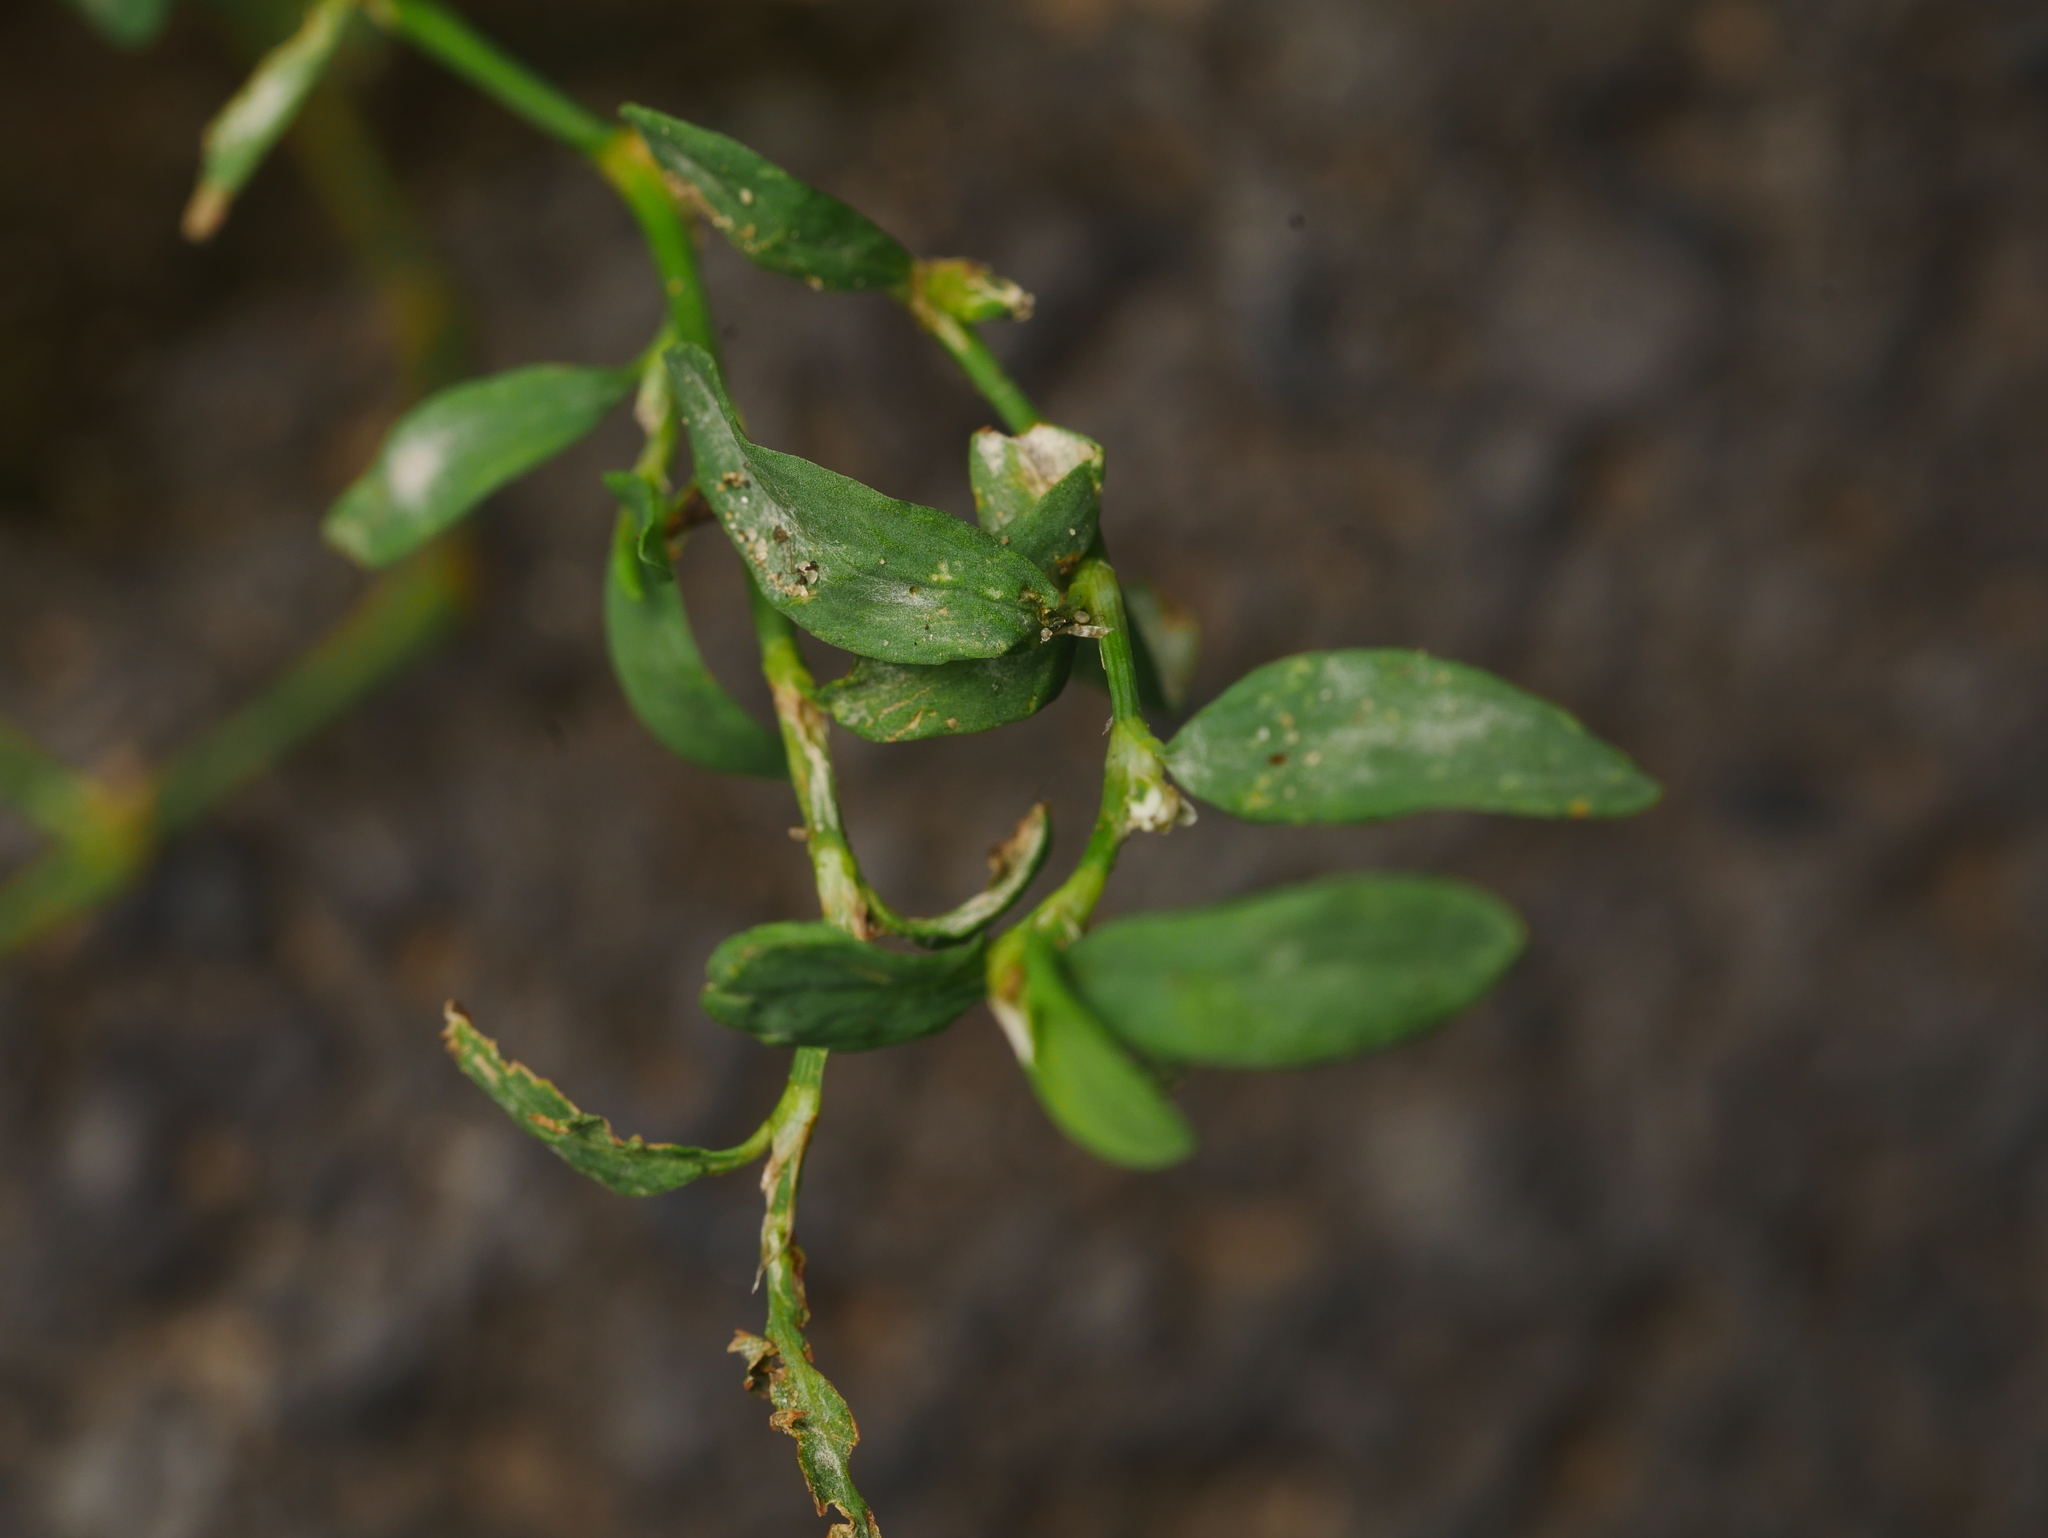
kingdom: Plantae
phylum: Tracheophyta
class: Magnoliopsida
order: Caryophyllales
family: Polygonaceae
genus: Polygonum
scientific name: Polygonum aviculare
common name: Prostrate knotweed
